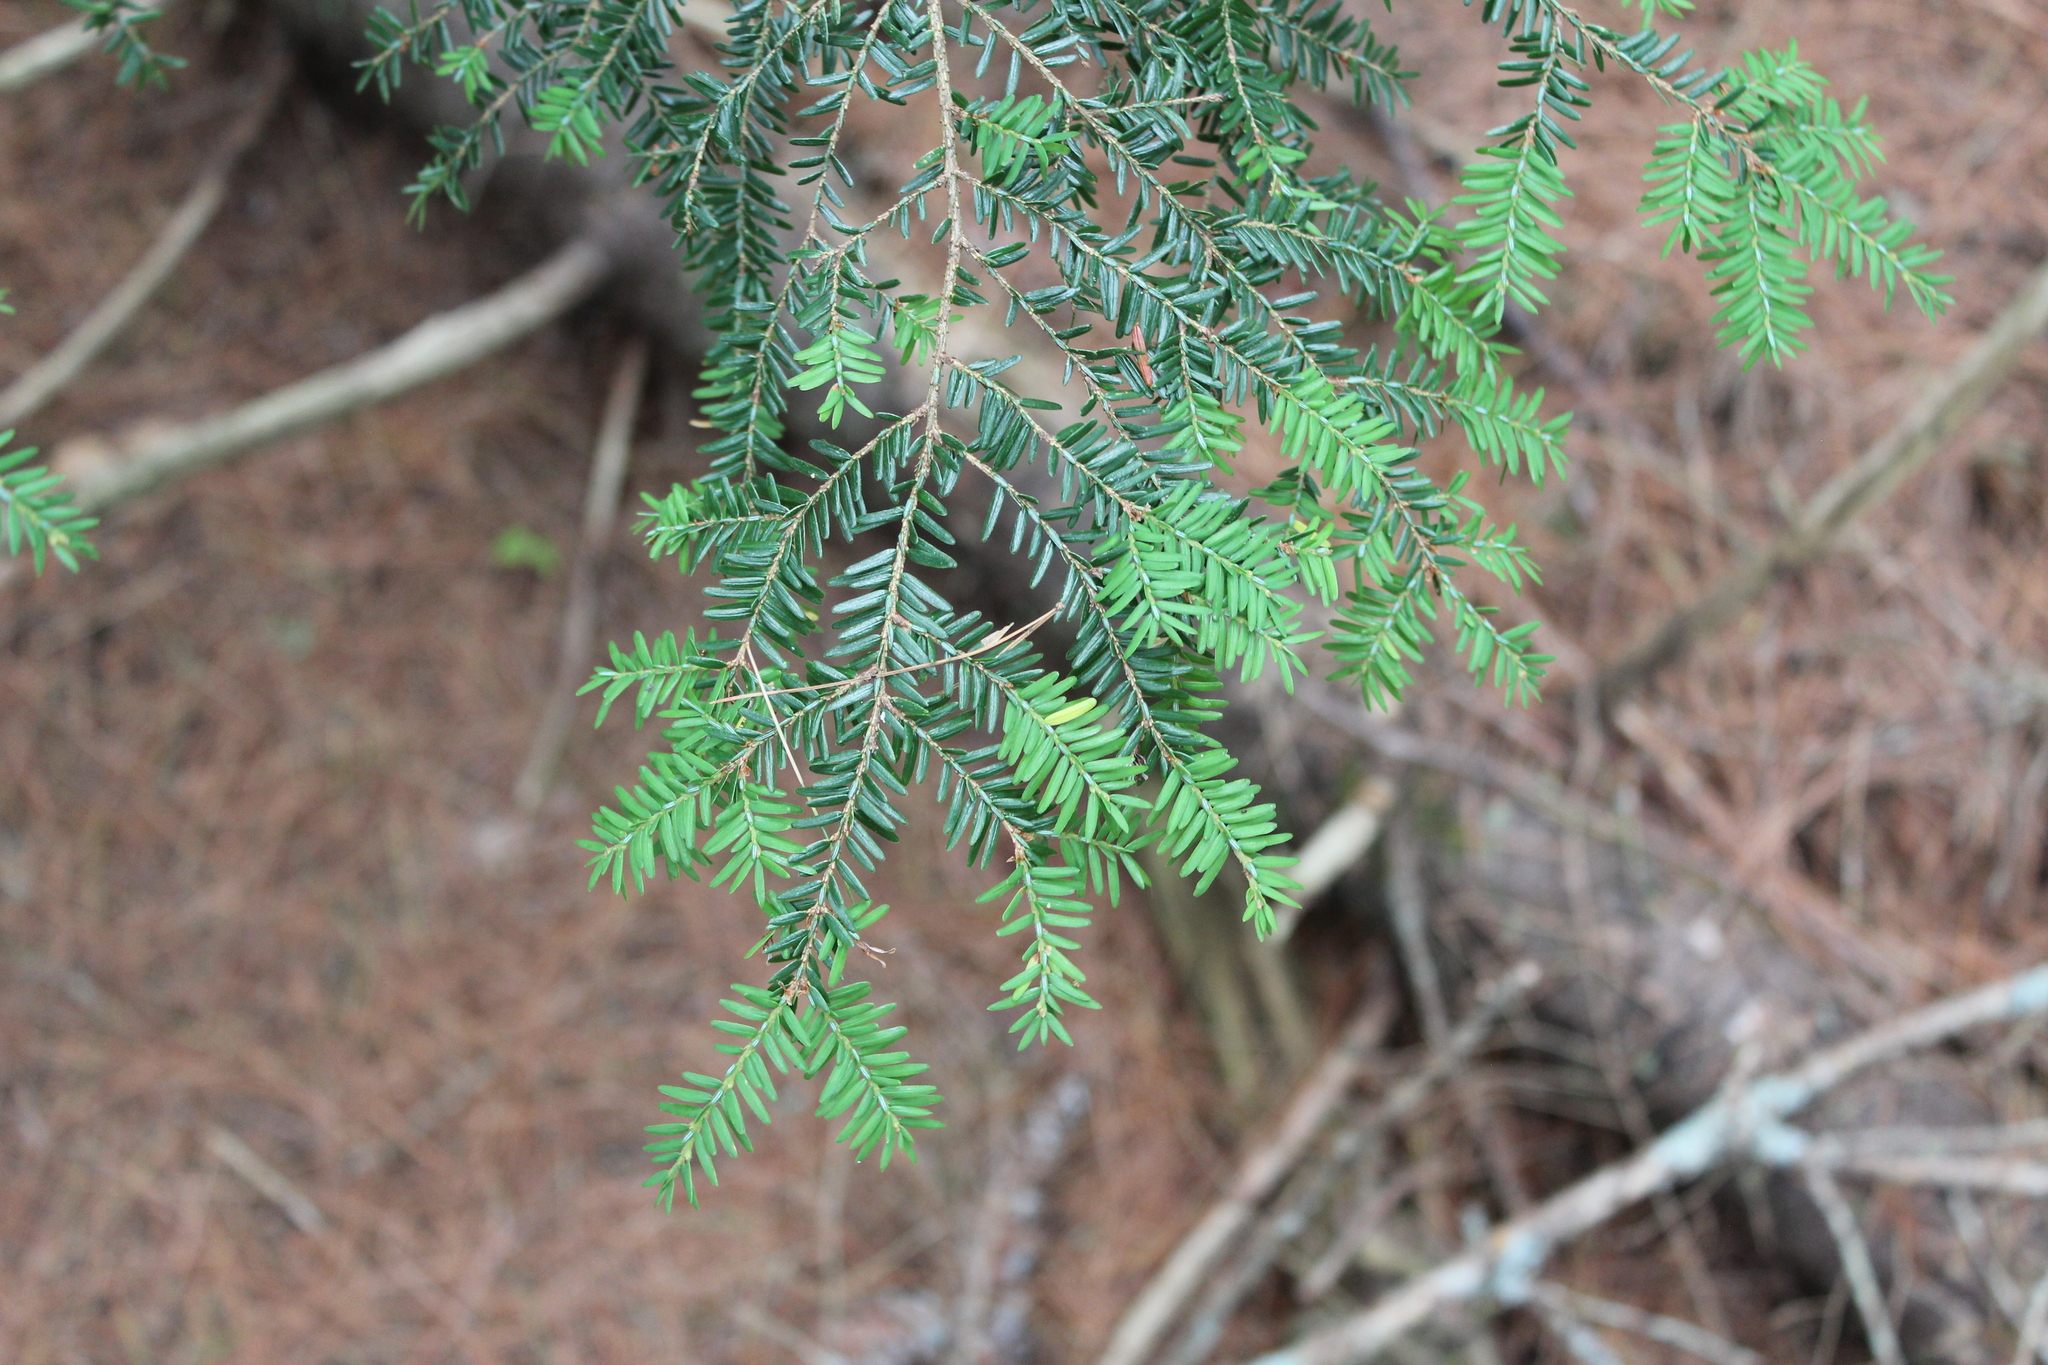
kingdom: Plantae
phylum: Tracheophyta
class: Pinopsida
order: Pinales
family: Pinaceae
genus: Tsuga
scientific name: Tsuga canadensis
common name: Eastern hemlock
